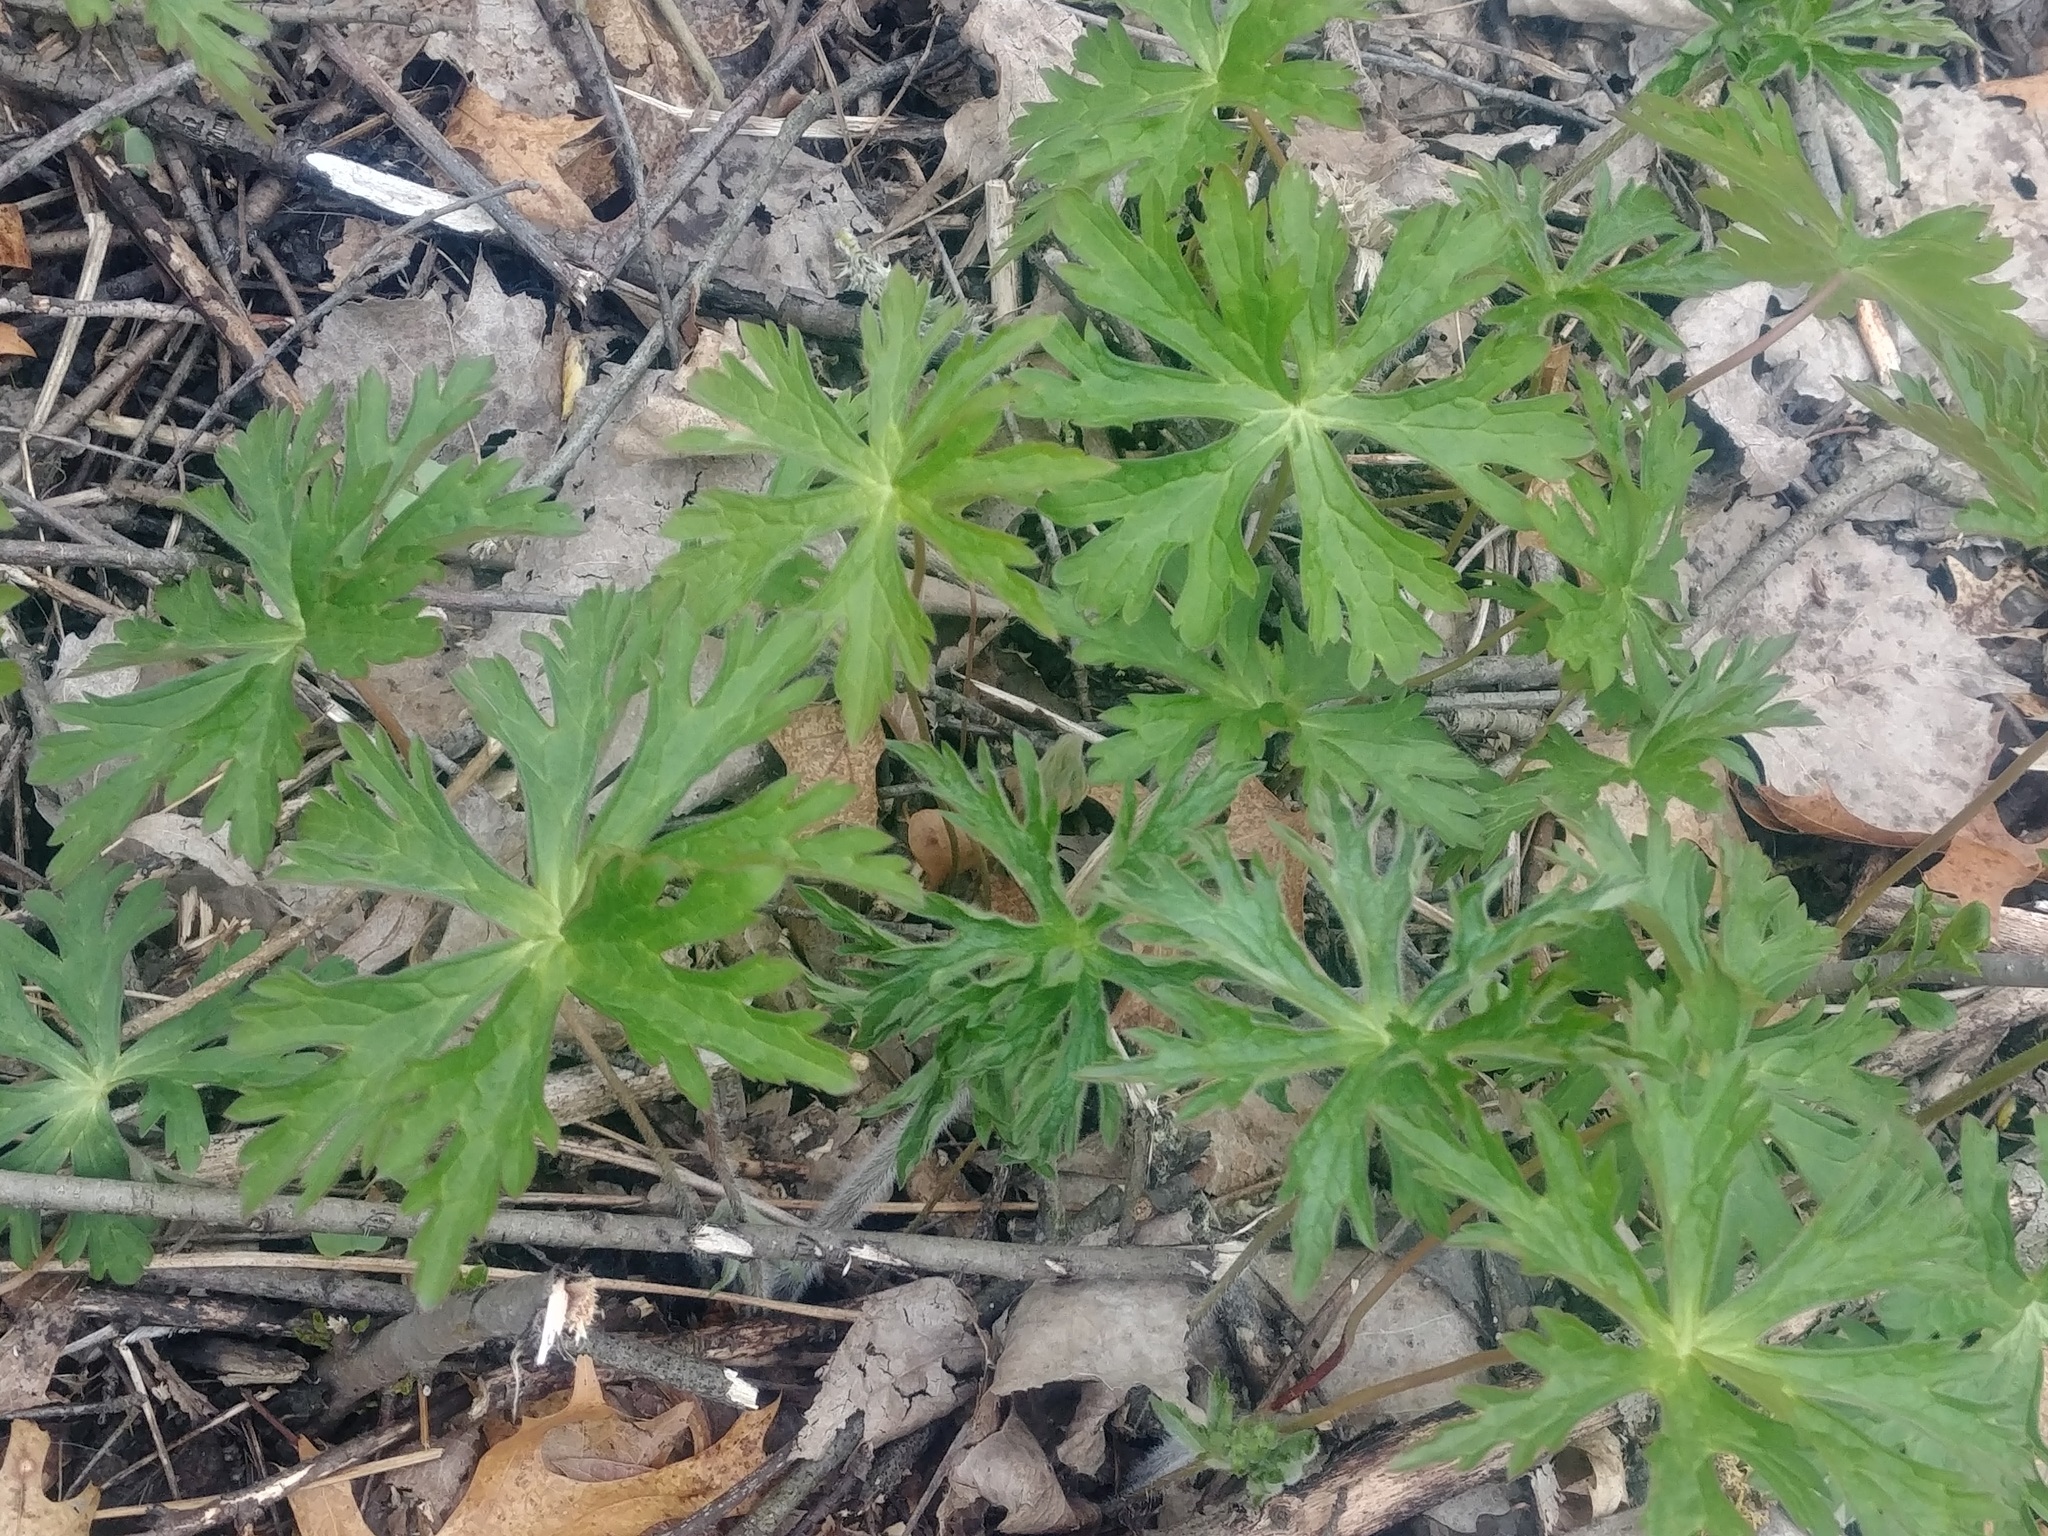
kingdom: Plantae
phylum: Tracheophyta
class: Magnoliopsida
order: Geraniales
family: Geraniaceae
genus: Geranium
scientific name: Geranium maculatum
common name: Spotted geranium
